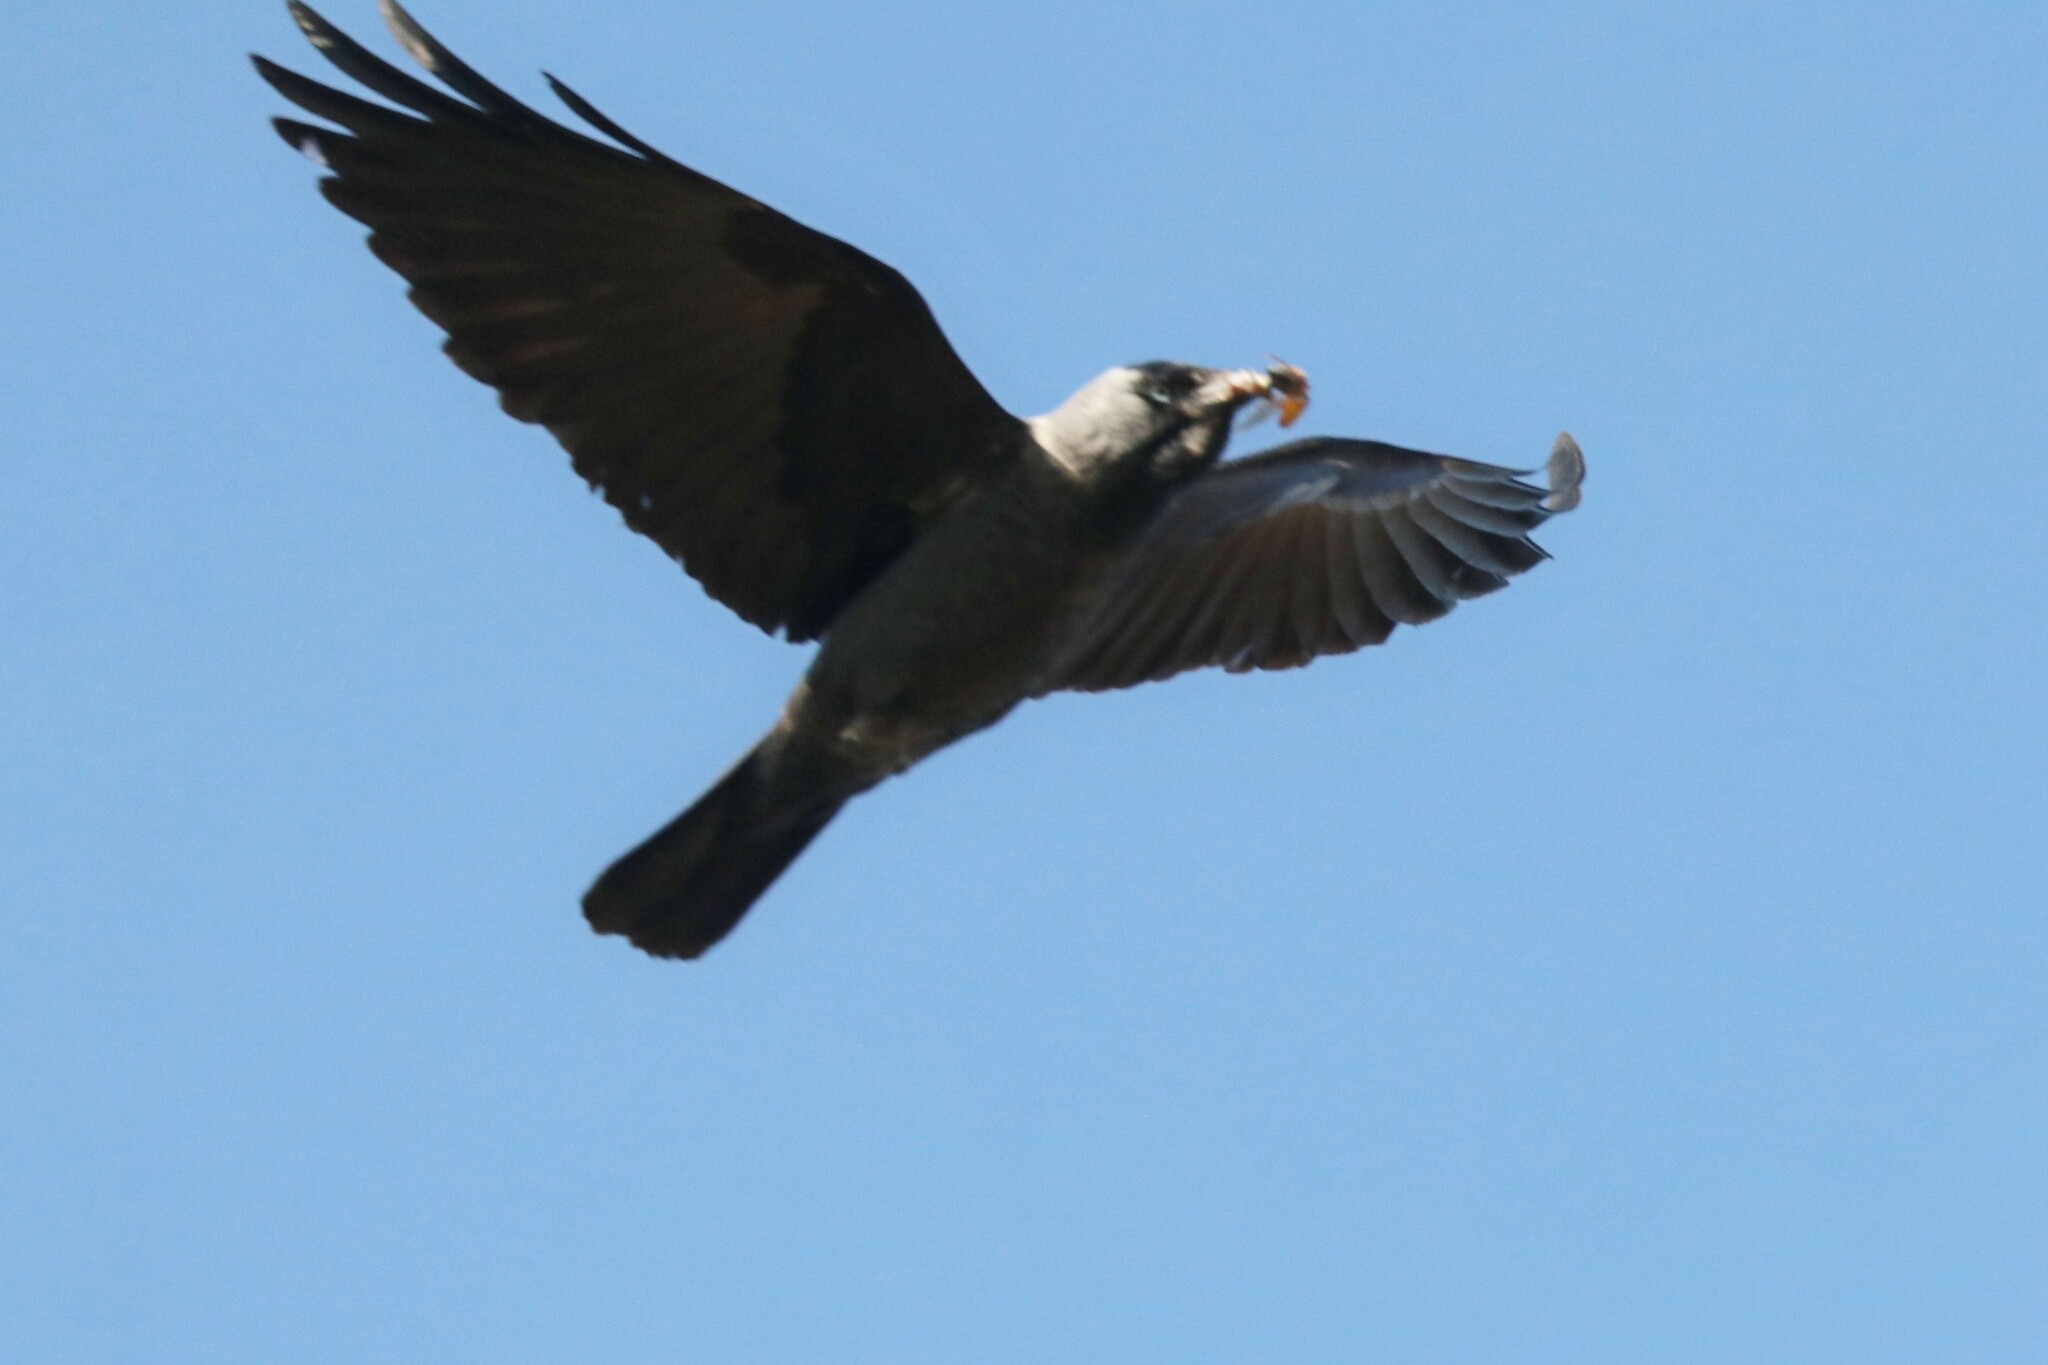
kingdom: Animalia
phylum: Chordata
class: Aves
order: Passeriformes
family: Corvidae
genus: Coloeus
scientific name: Coloeus monedula
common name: Western jackdaw
